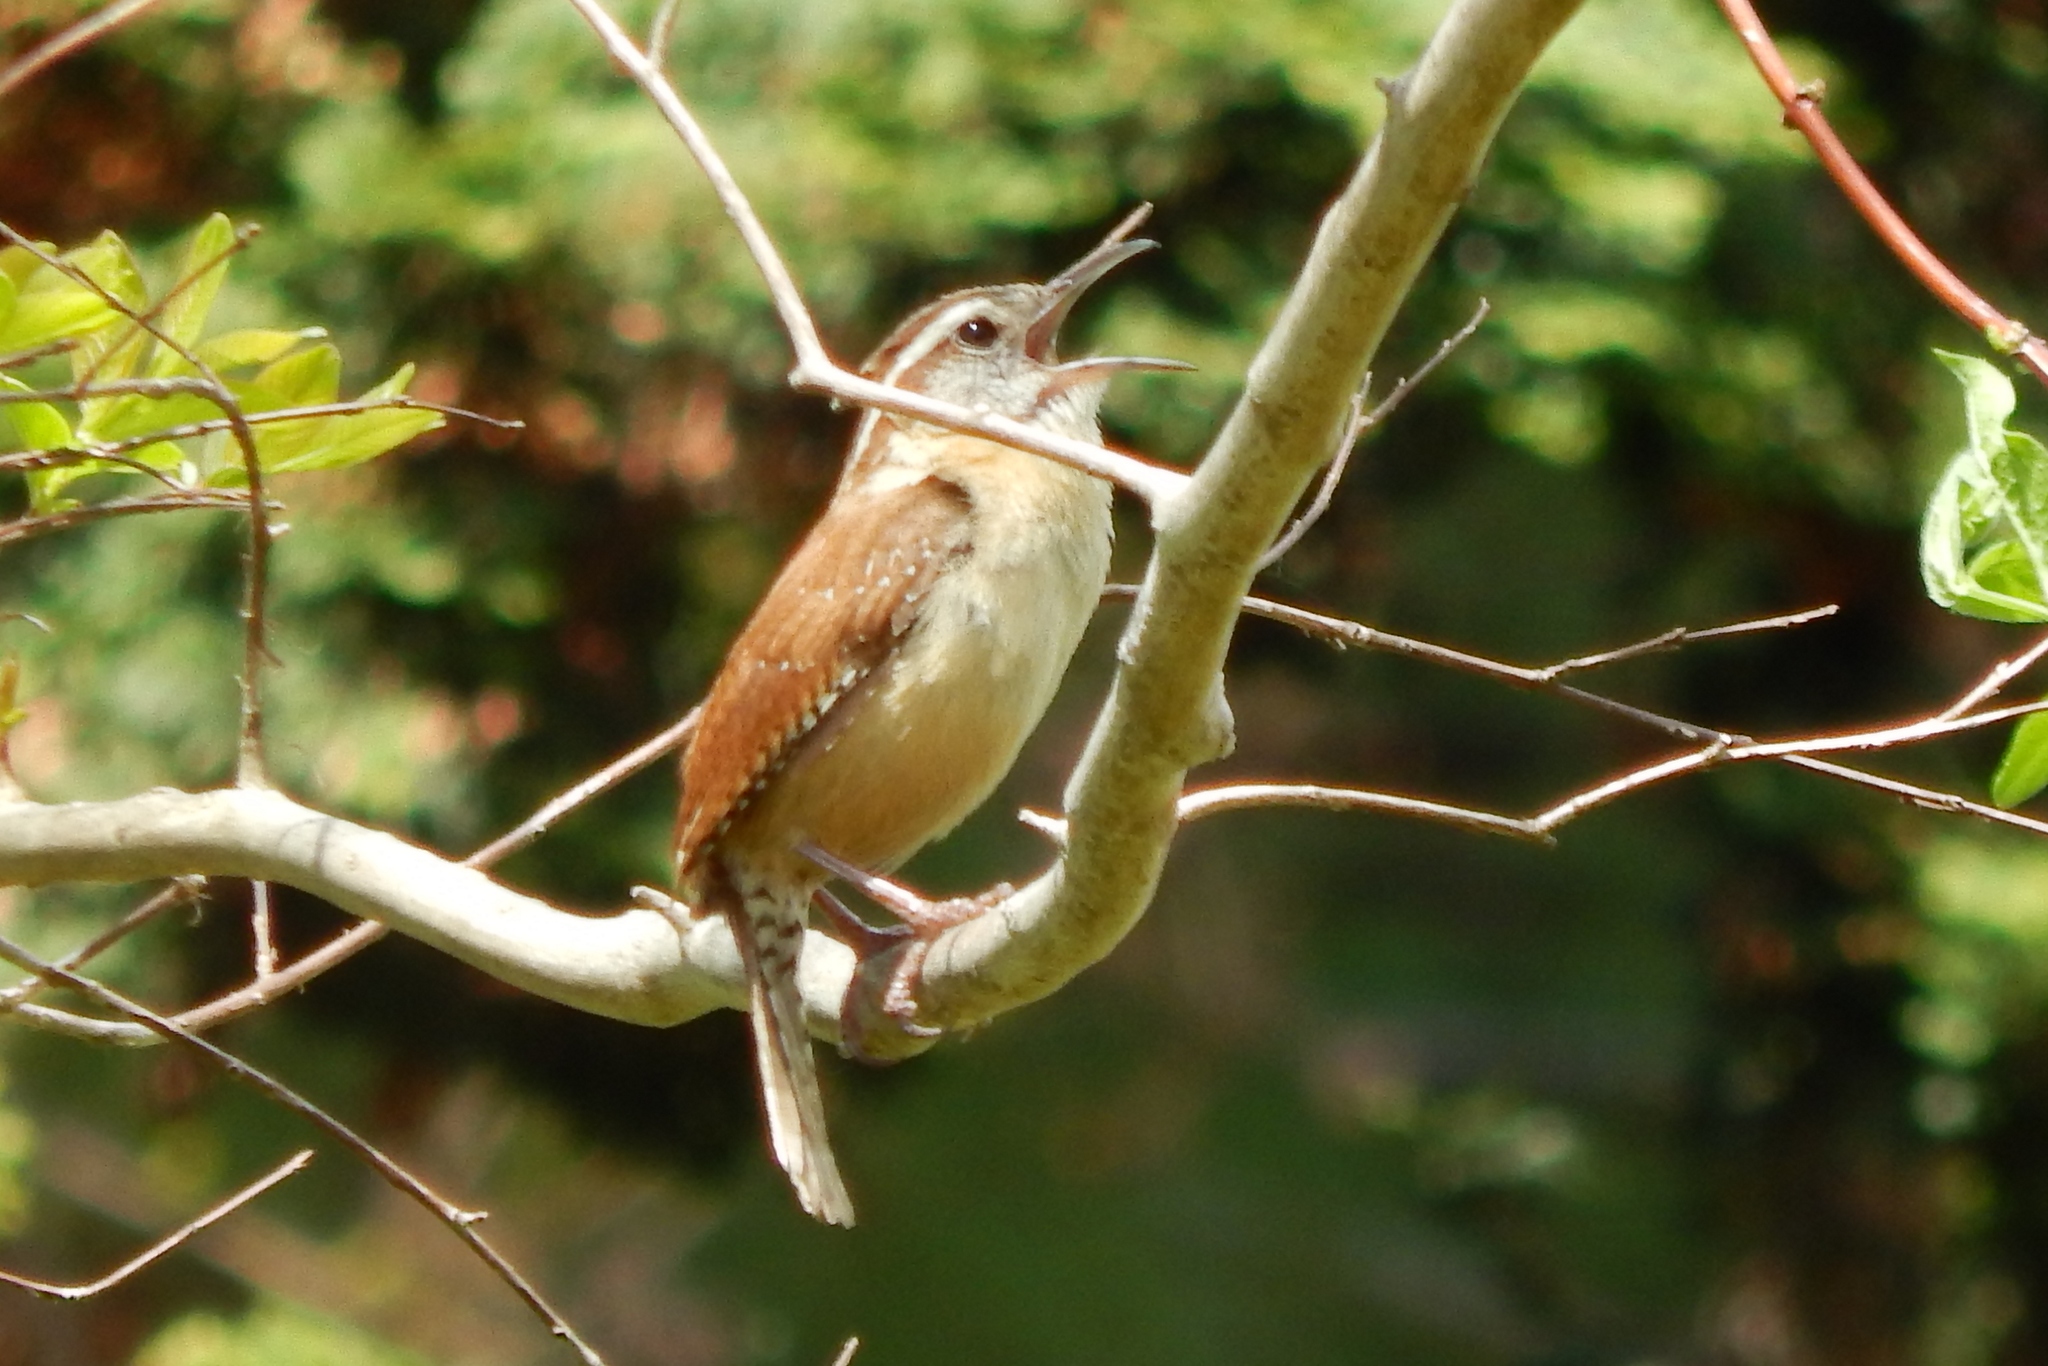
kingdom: Animalia
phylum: Chordata
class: Aves
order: Passeriformes
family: Troglodytidae
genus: Thryothorus
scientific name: Thryothorus ludovicianus
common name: Carolina wren
